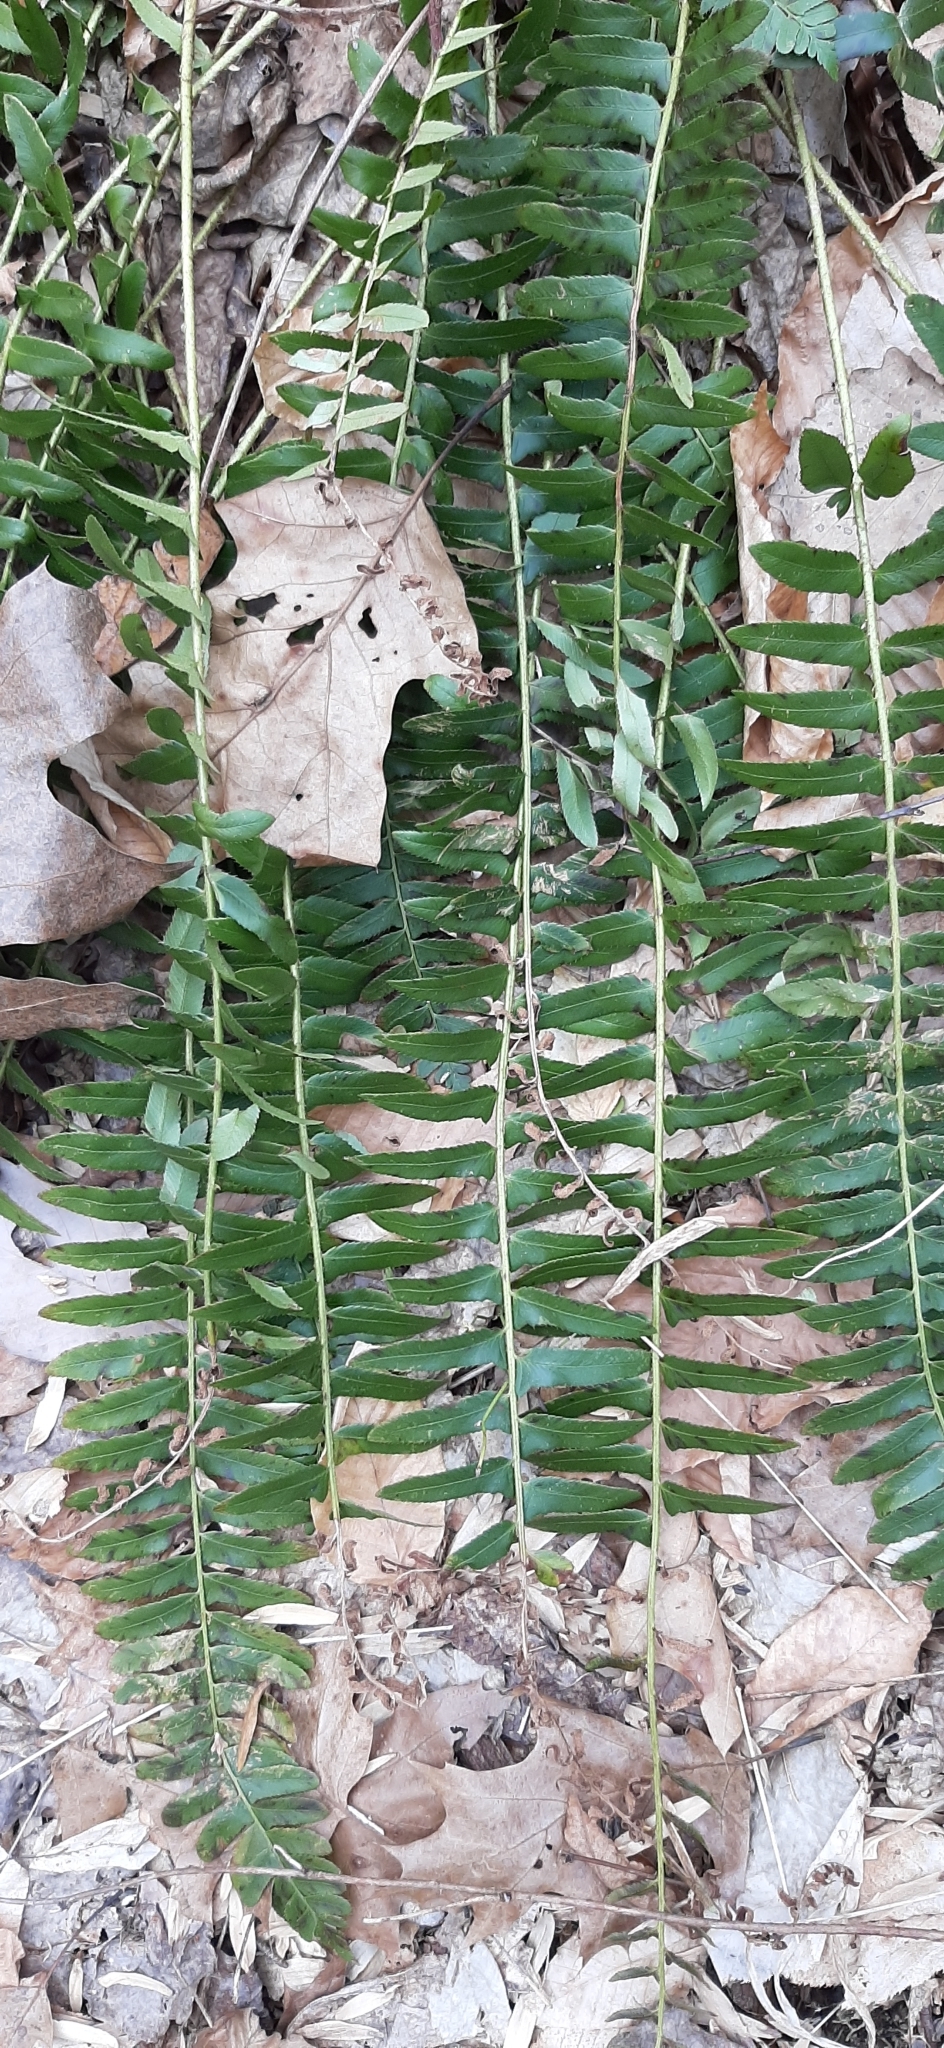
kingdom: Plantae
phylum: Tracheophyta
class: Polypodiopsida
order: Polypodiales
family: Dryopteridaceae
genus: Polystichum
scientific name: Polystichum acrostichoides
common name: Christmas fern
